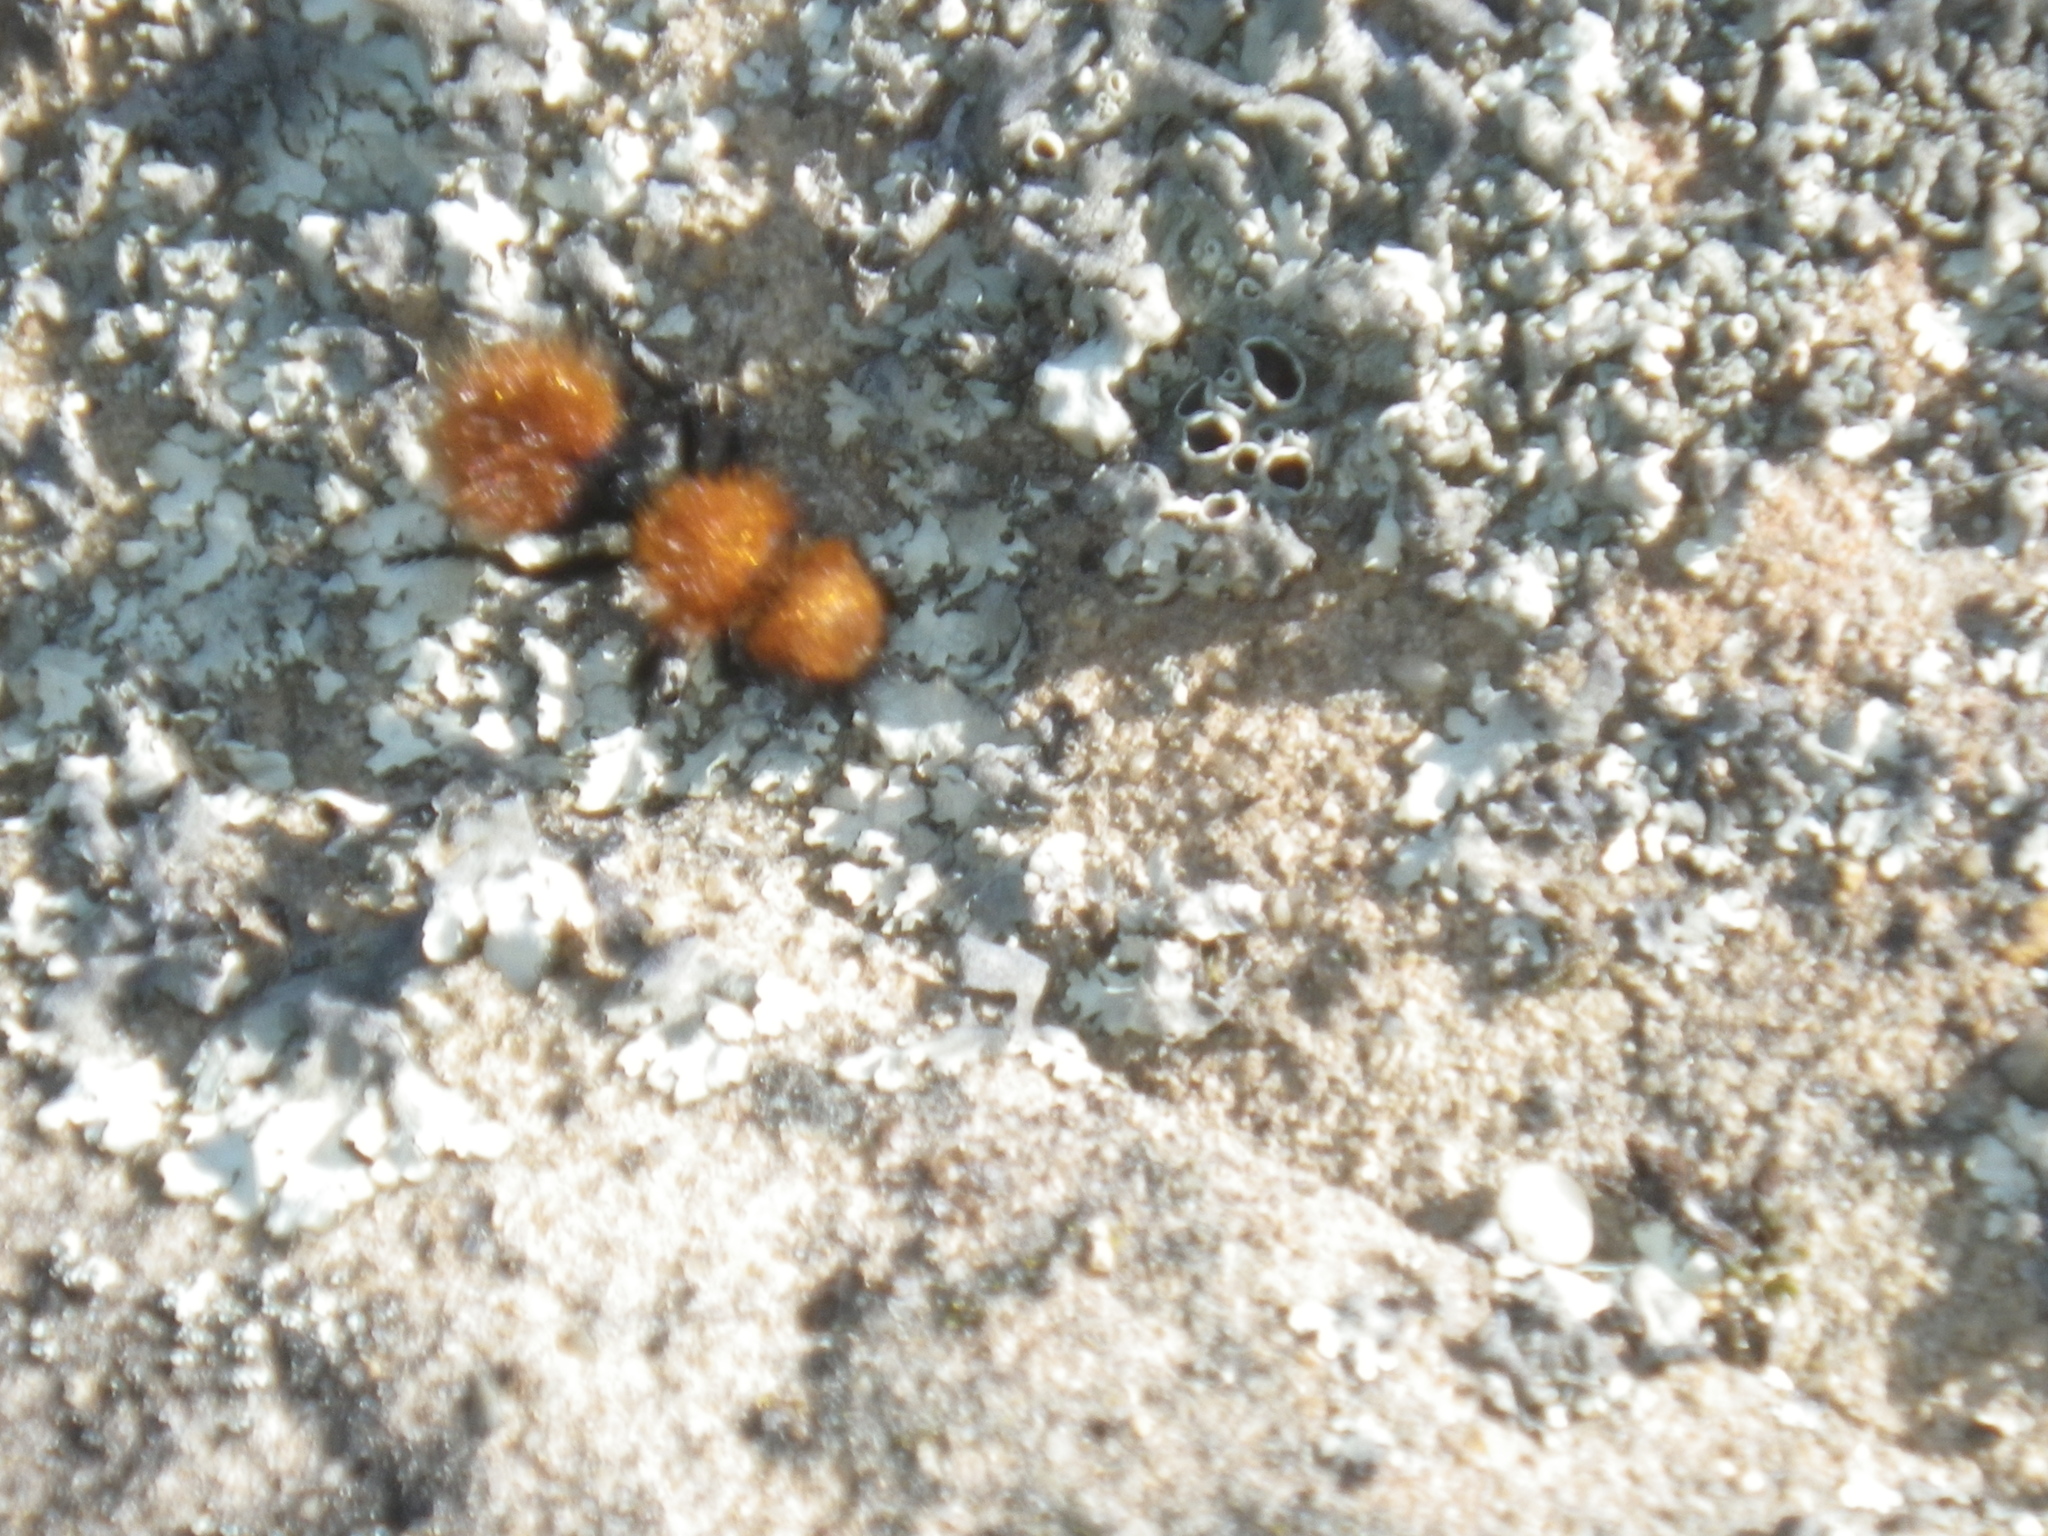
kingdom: Animalia
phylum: Arthropoda
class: Insecta
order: Hymenoptera
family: Mutillidae
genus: Dasymutilla
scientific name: Dasymutilla
